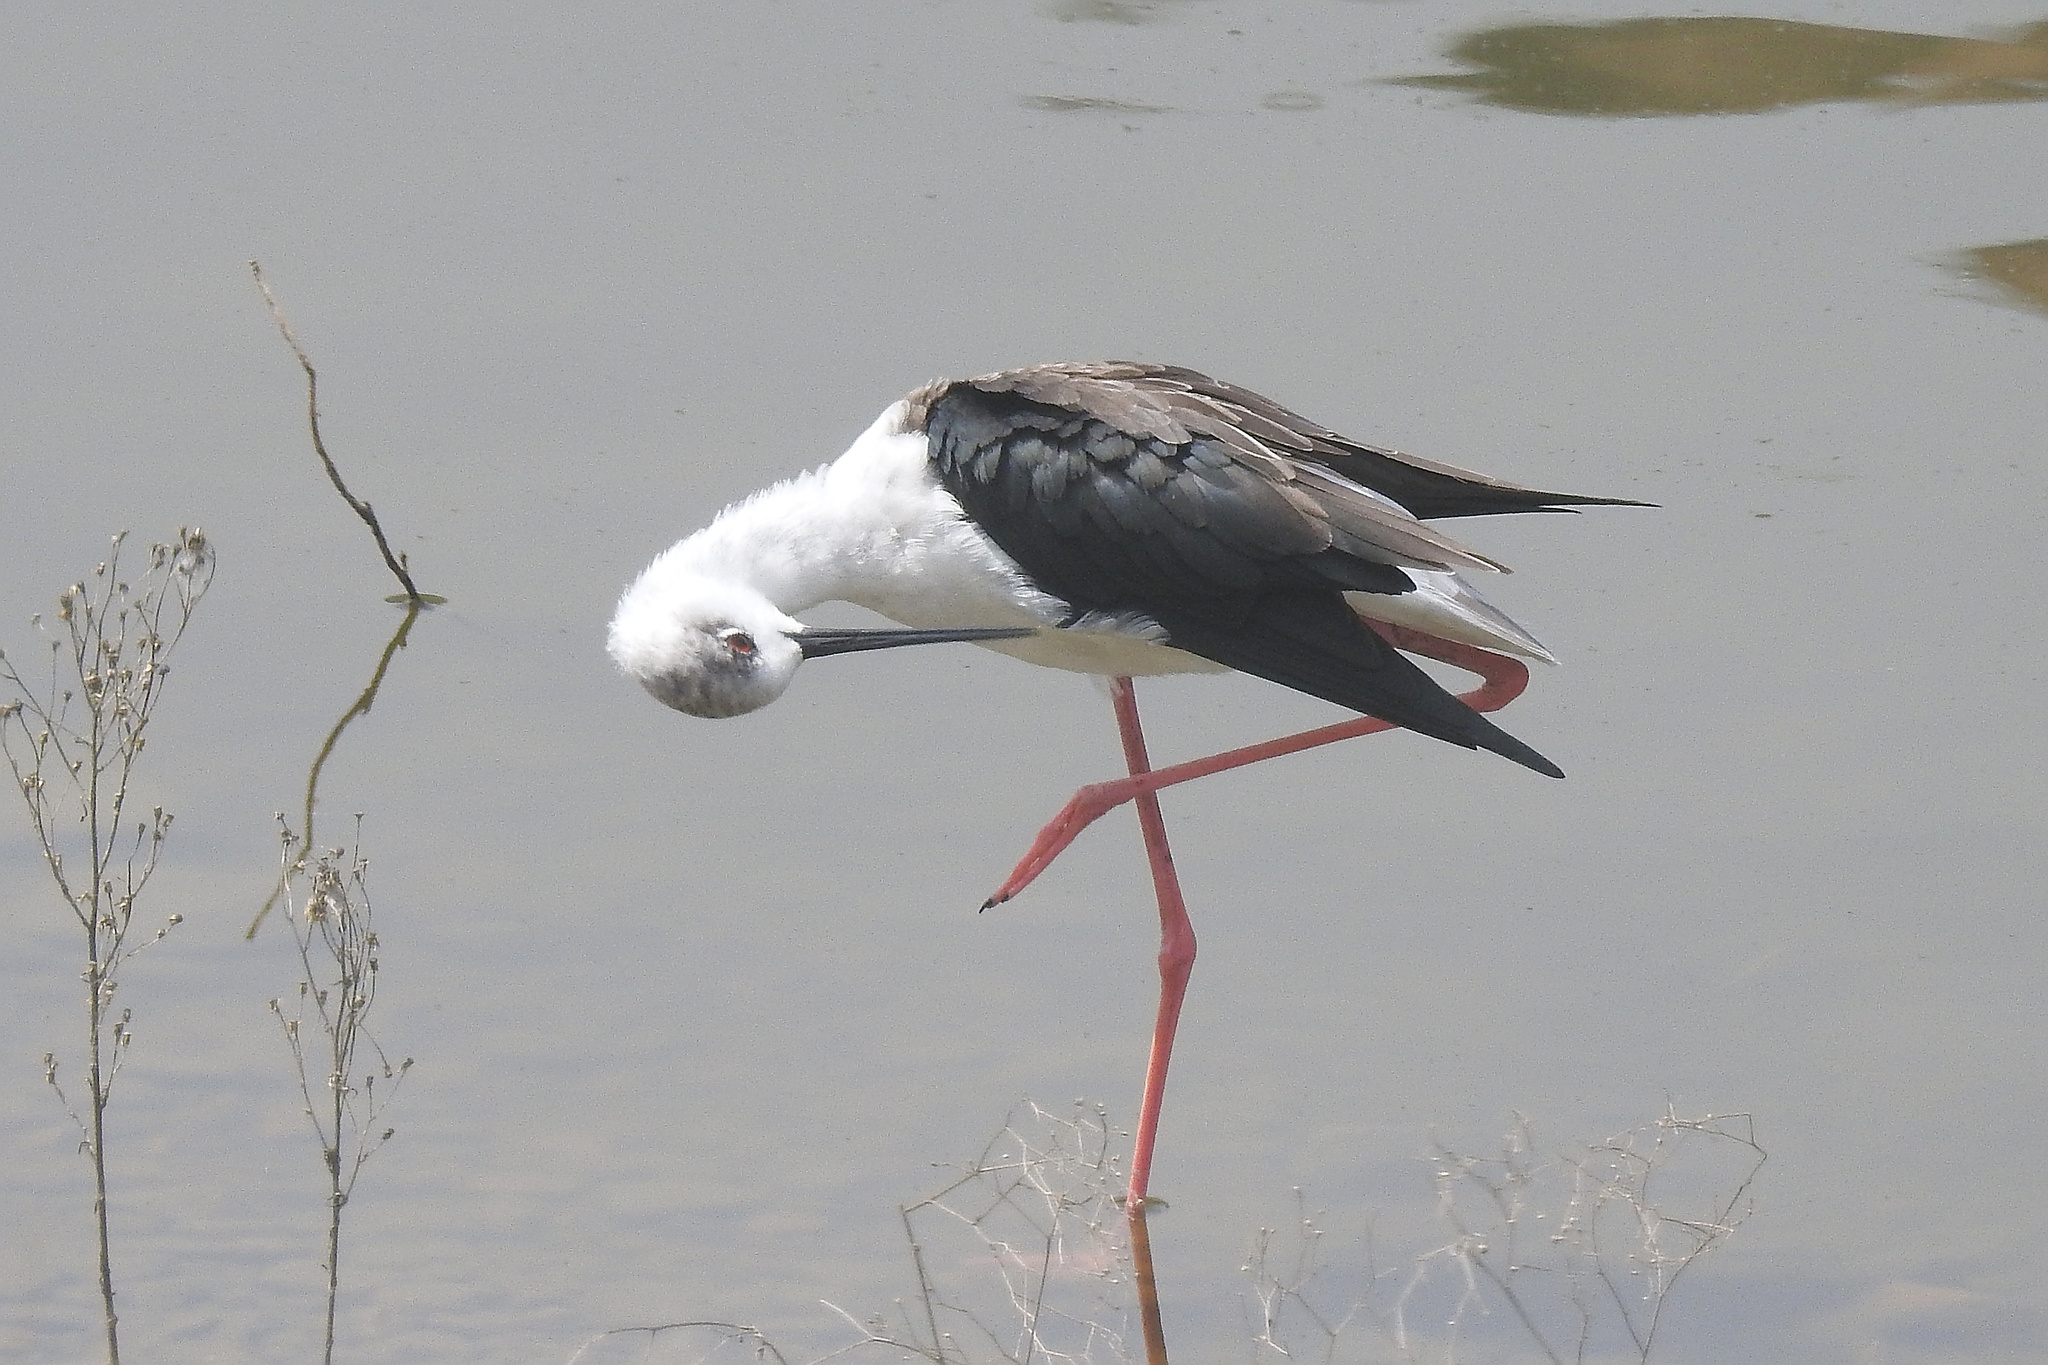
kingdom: Animalia
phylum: Chordata
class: Aves
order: Charadriiformes
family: Recurvirostridae
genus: Himantopus
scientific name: Himantopus himantopus
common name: Black-winged stilt
